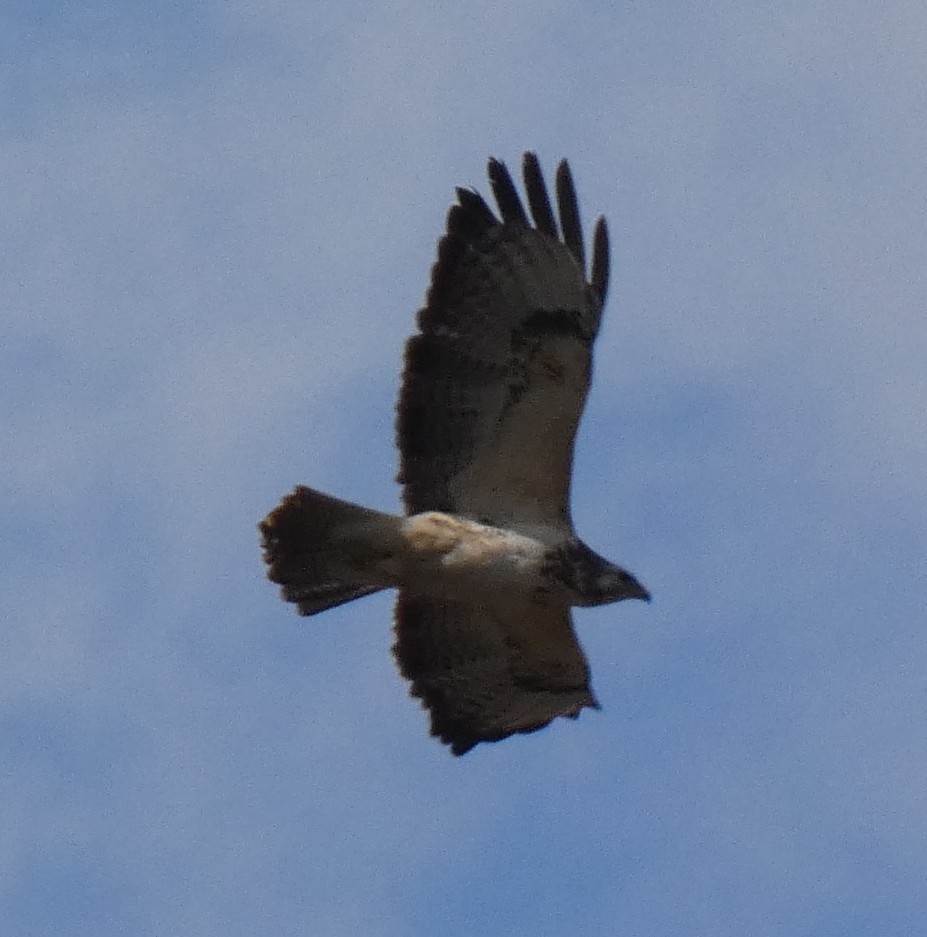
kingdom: Animalia
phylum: Chordata
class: Aves
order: Accipitriformes
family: Accipitridae
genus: Buteo
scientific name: Buteo buteo
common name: Common buzzard
